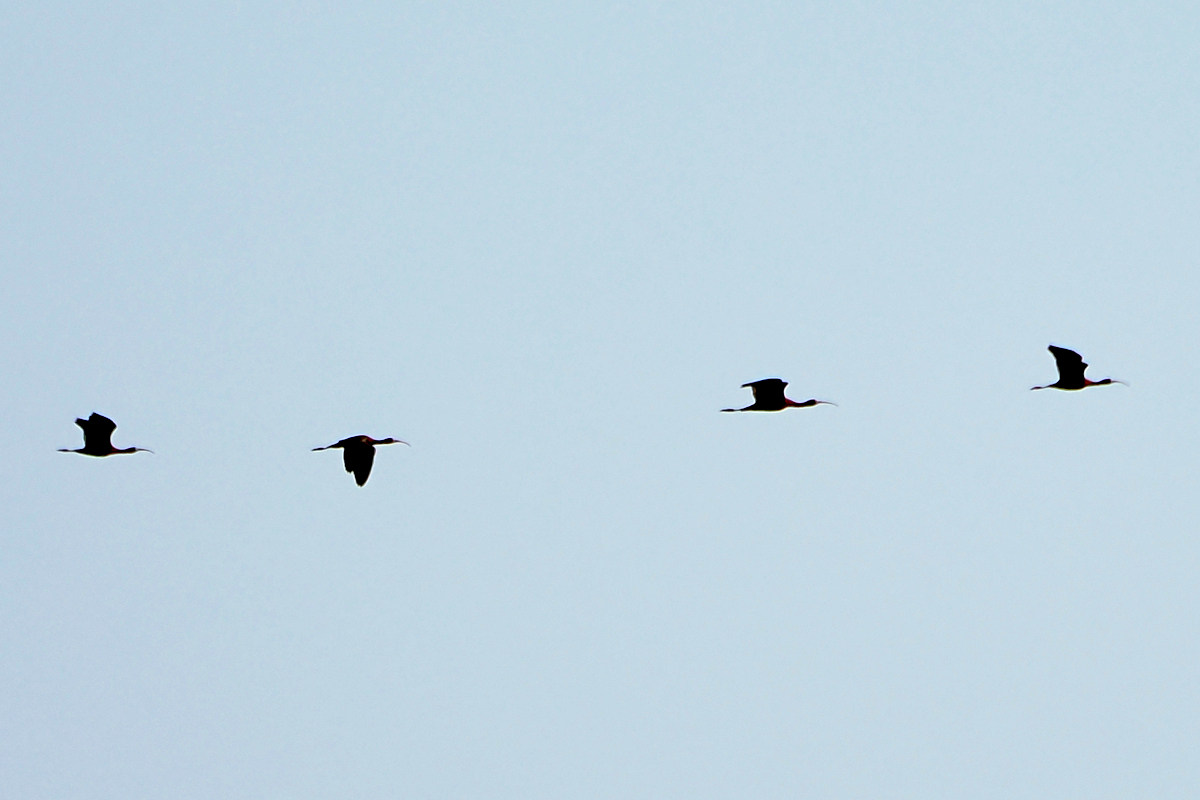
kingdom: Animalia
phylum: Chordata
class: Aves
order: Pelecaniformes
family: Threskiornithidae
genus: Plegadis
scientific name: Plegadis falcinellus
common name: Glossy ibis
